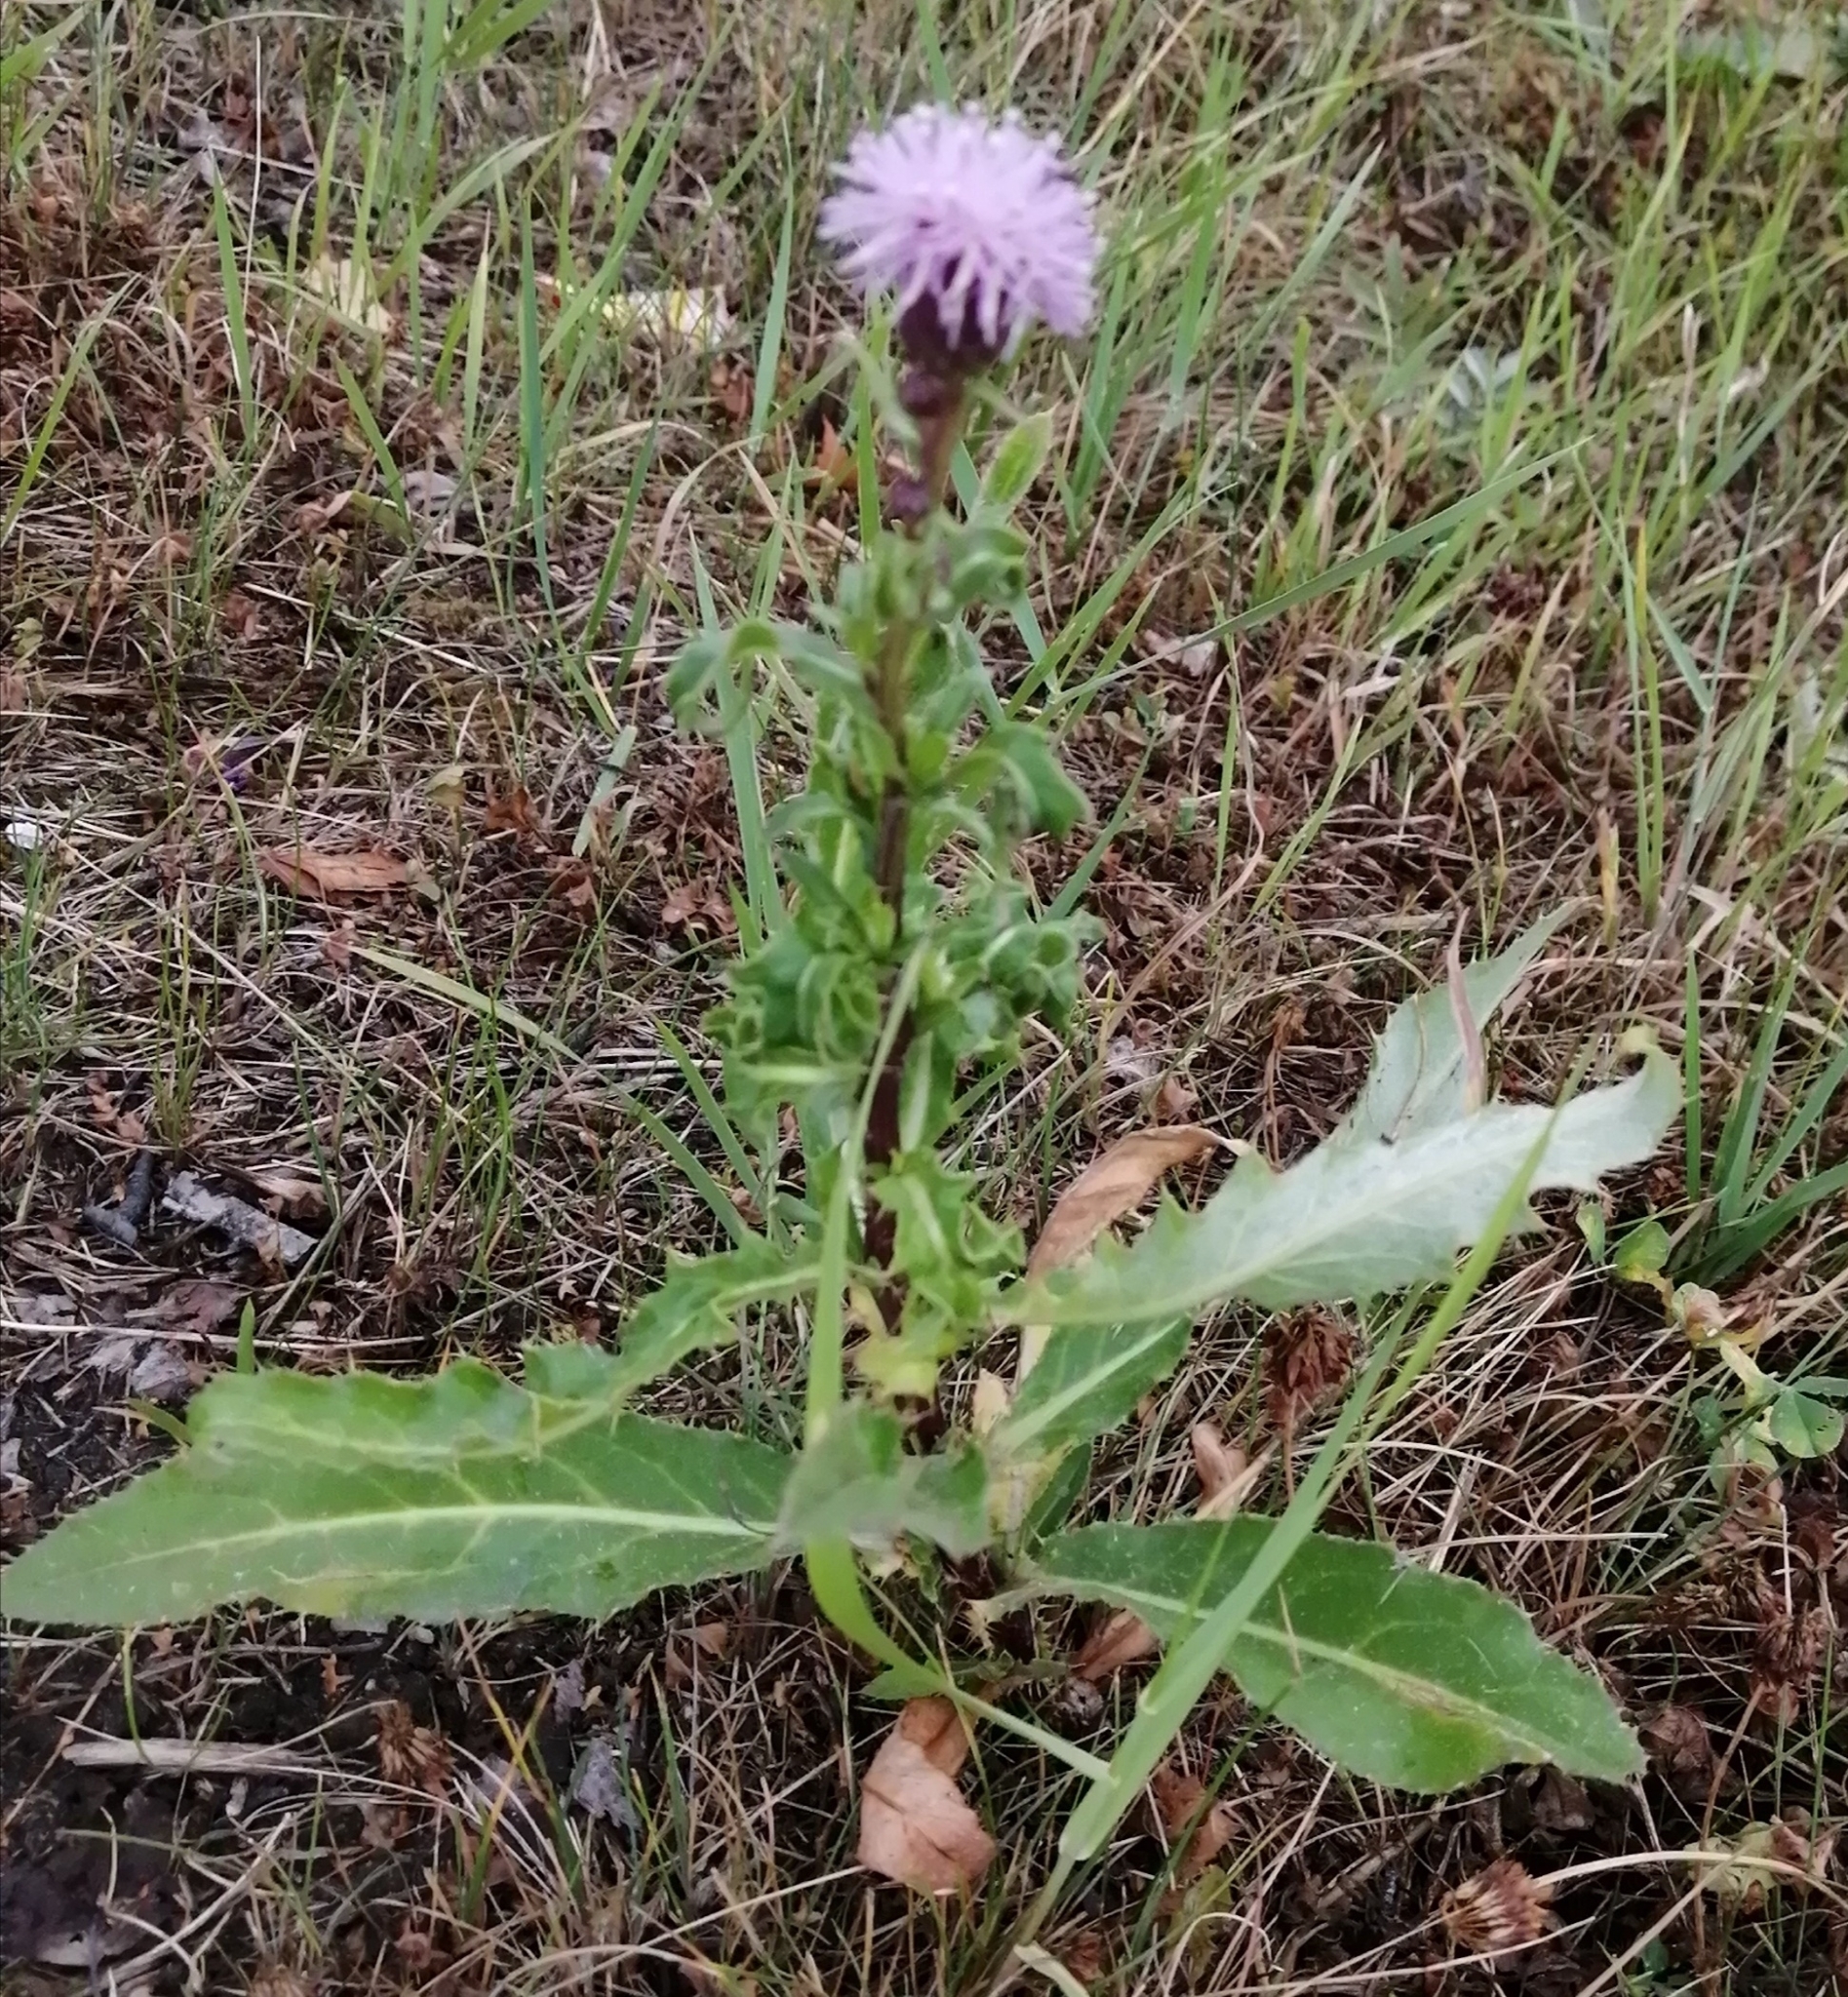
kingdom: Plantae
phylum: Tracheophyta
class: Magnoliopsida
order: Asterales
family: Asteraceae
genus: Cirsium
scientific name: Cirsium arvense
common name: Creeping thistle
